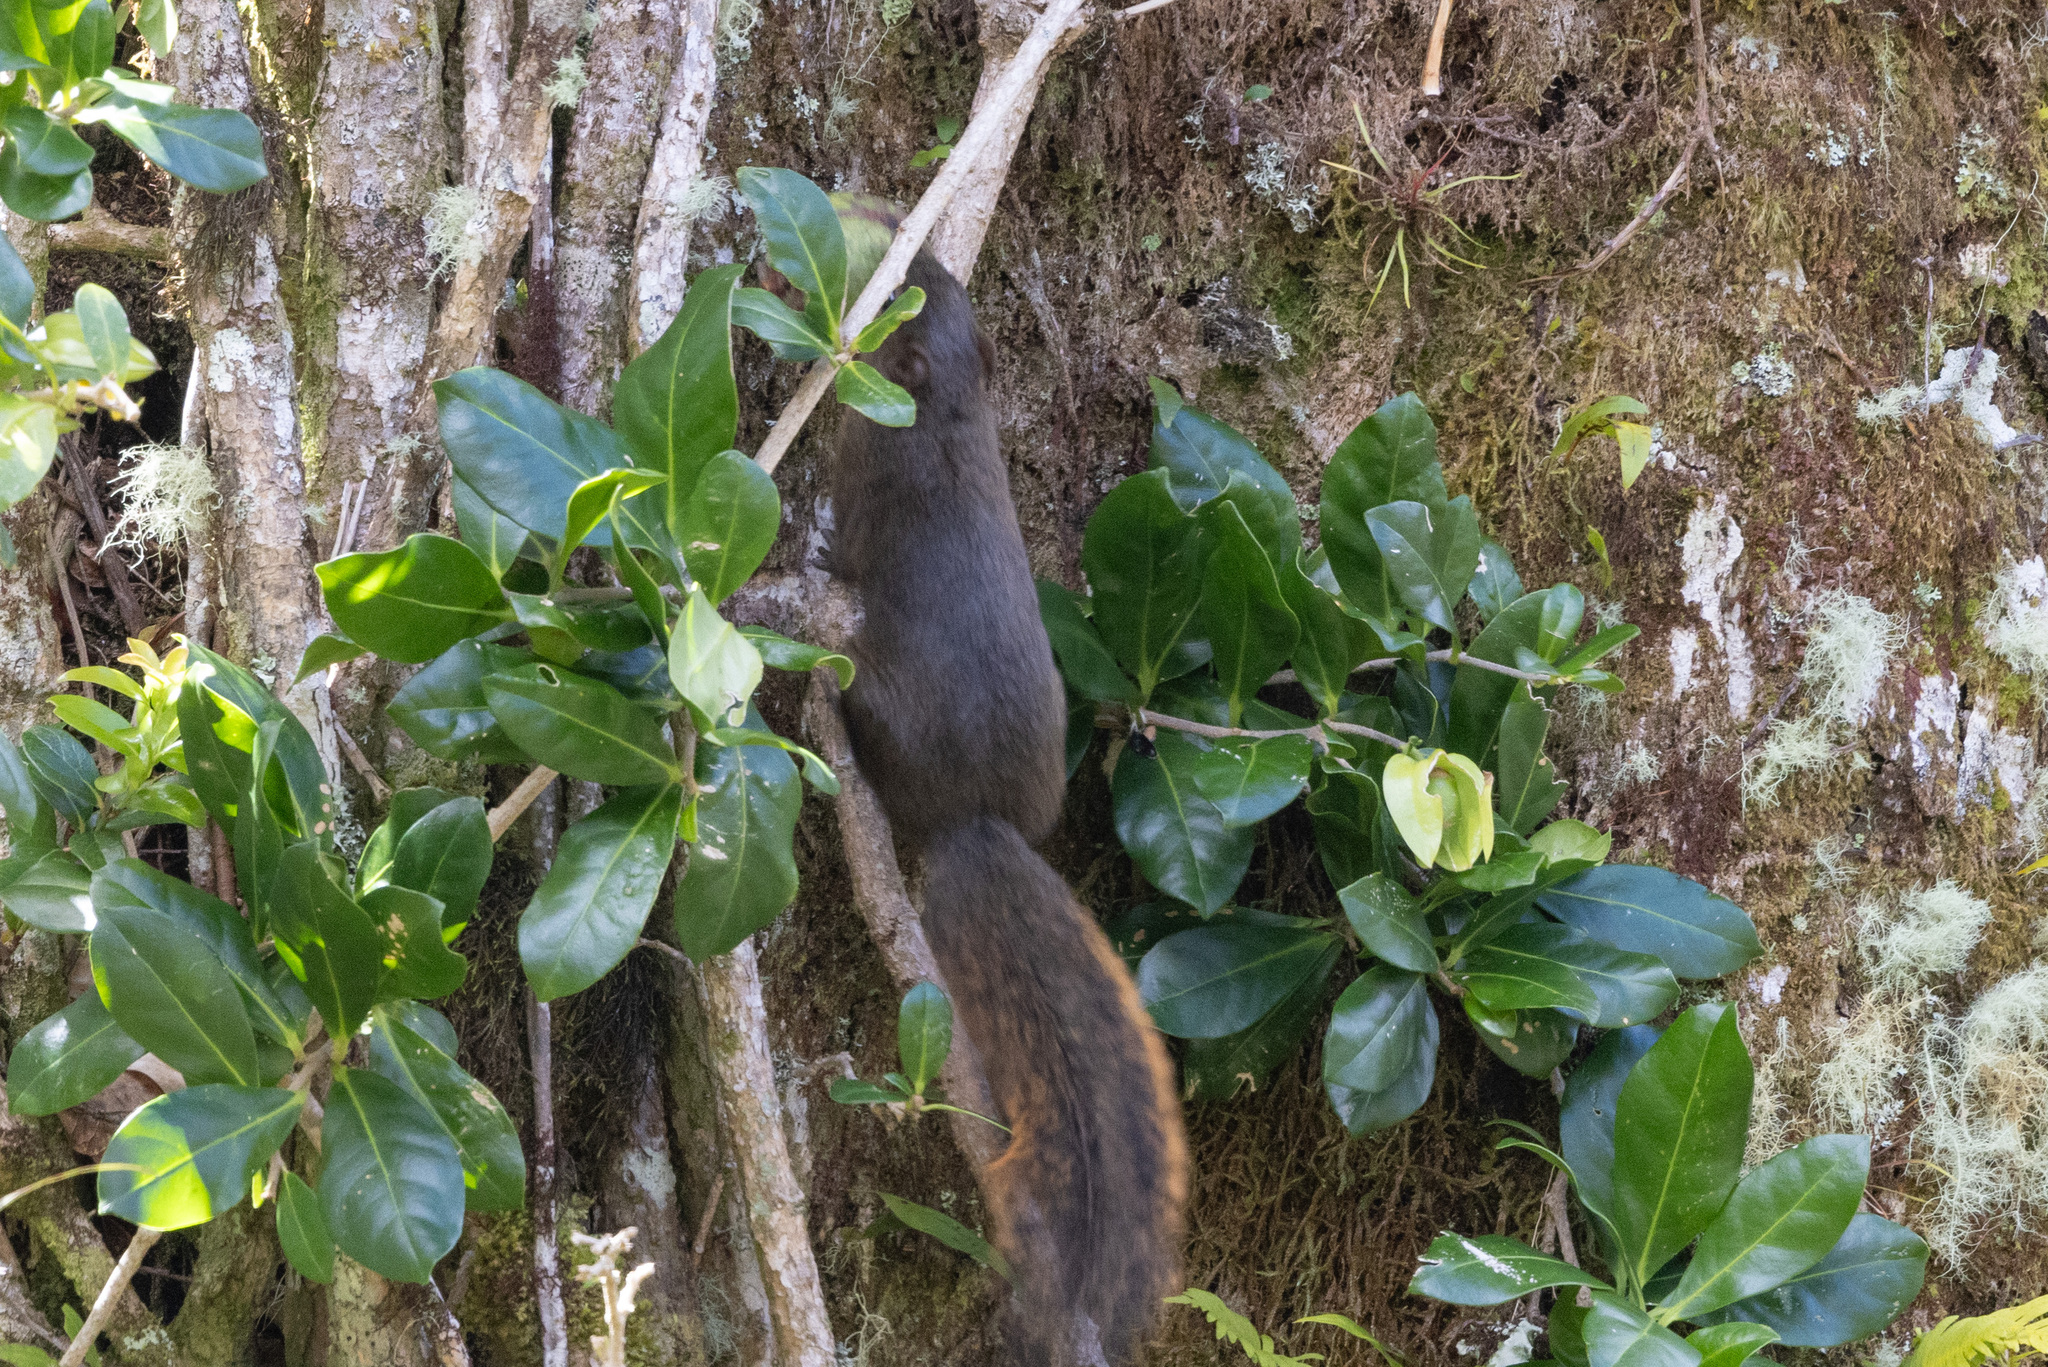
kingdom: Animalia
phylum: Chordata
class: Mammalia
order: Rodentia
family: Sciuridae
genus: Sciurus
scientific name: Sciurus granatensis
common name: Red-tailed squirrel
